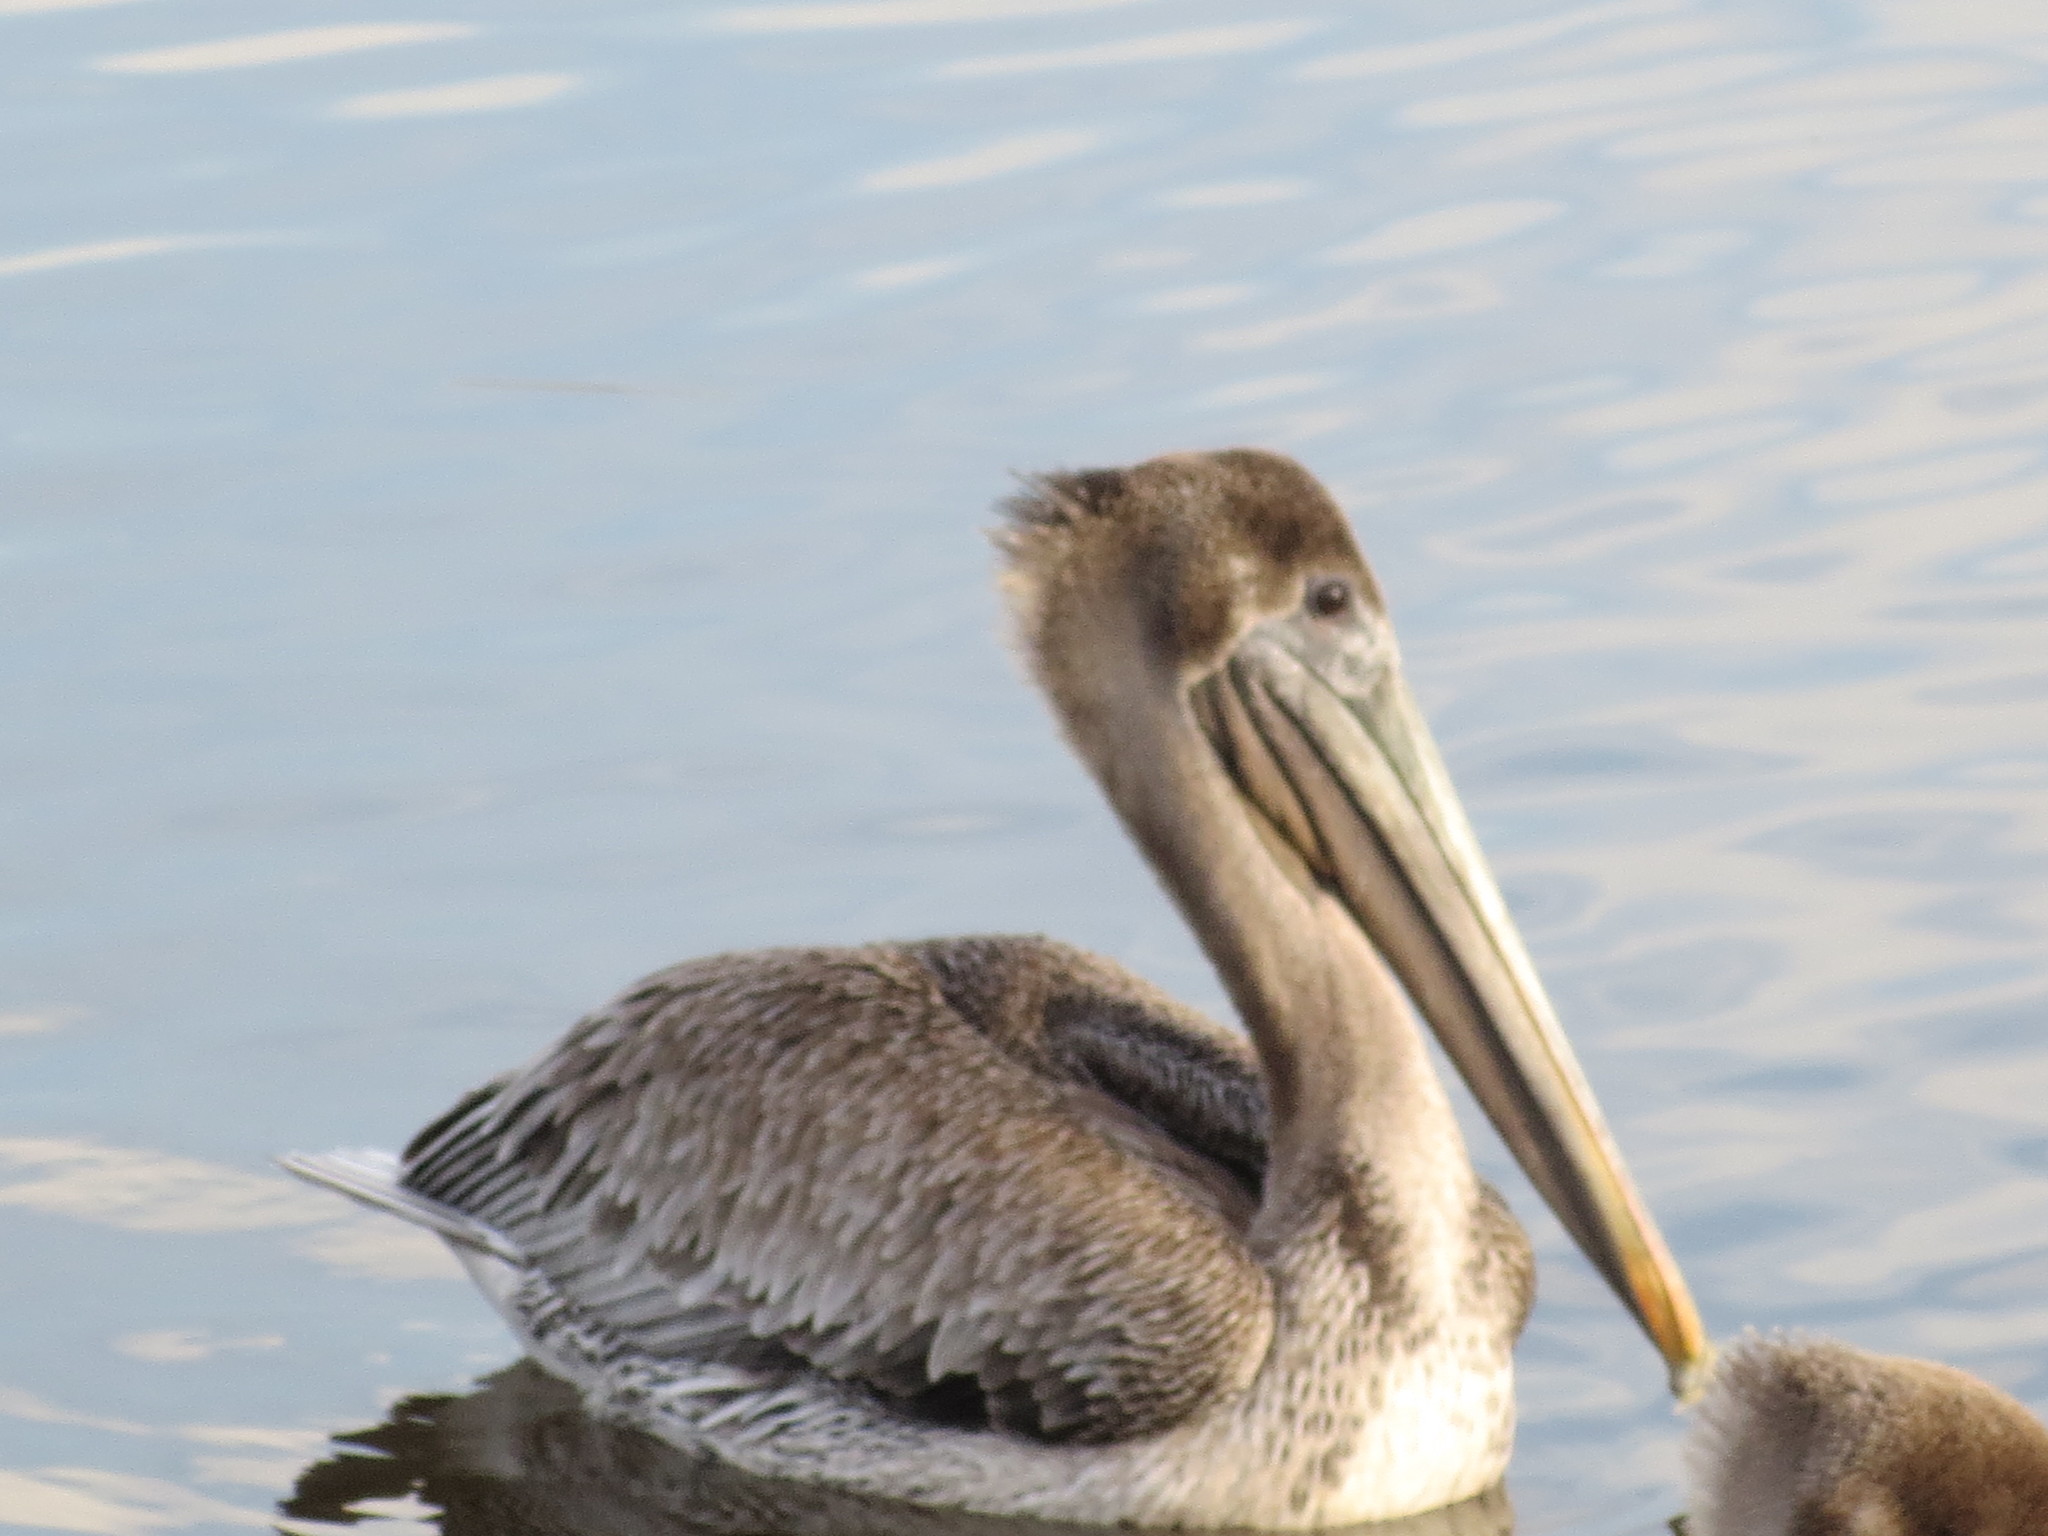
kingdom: Animalia
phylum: Chordata
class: Aves
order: Pelecaniformes
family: Pelecanidae
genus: Pelecanus
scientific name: Pelecanus occidentalis
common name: Brown pelican
